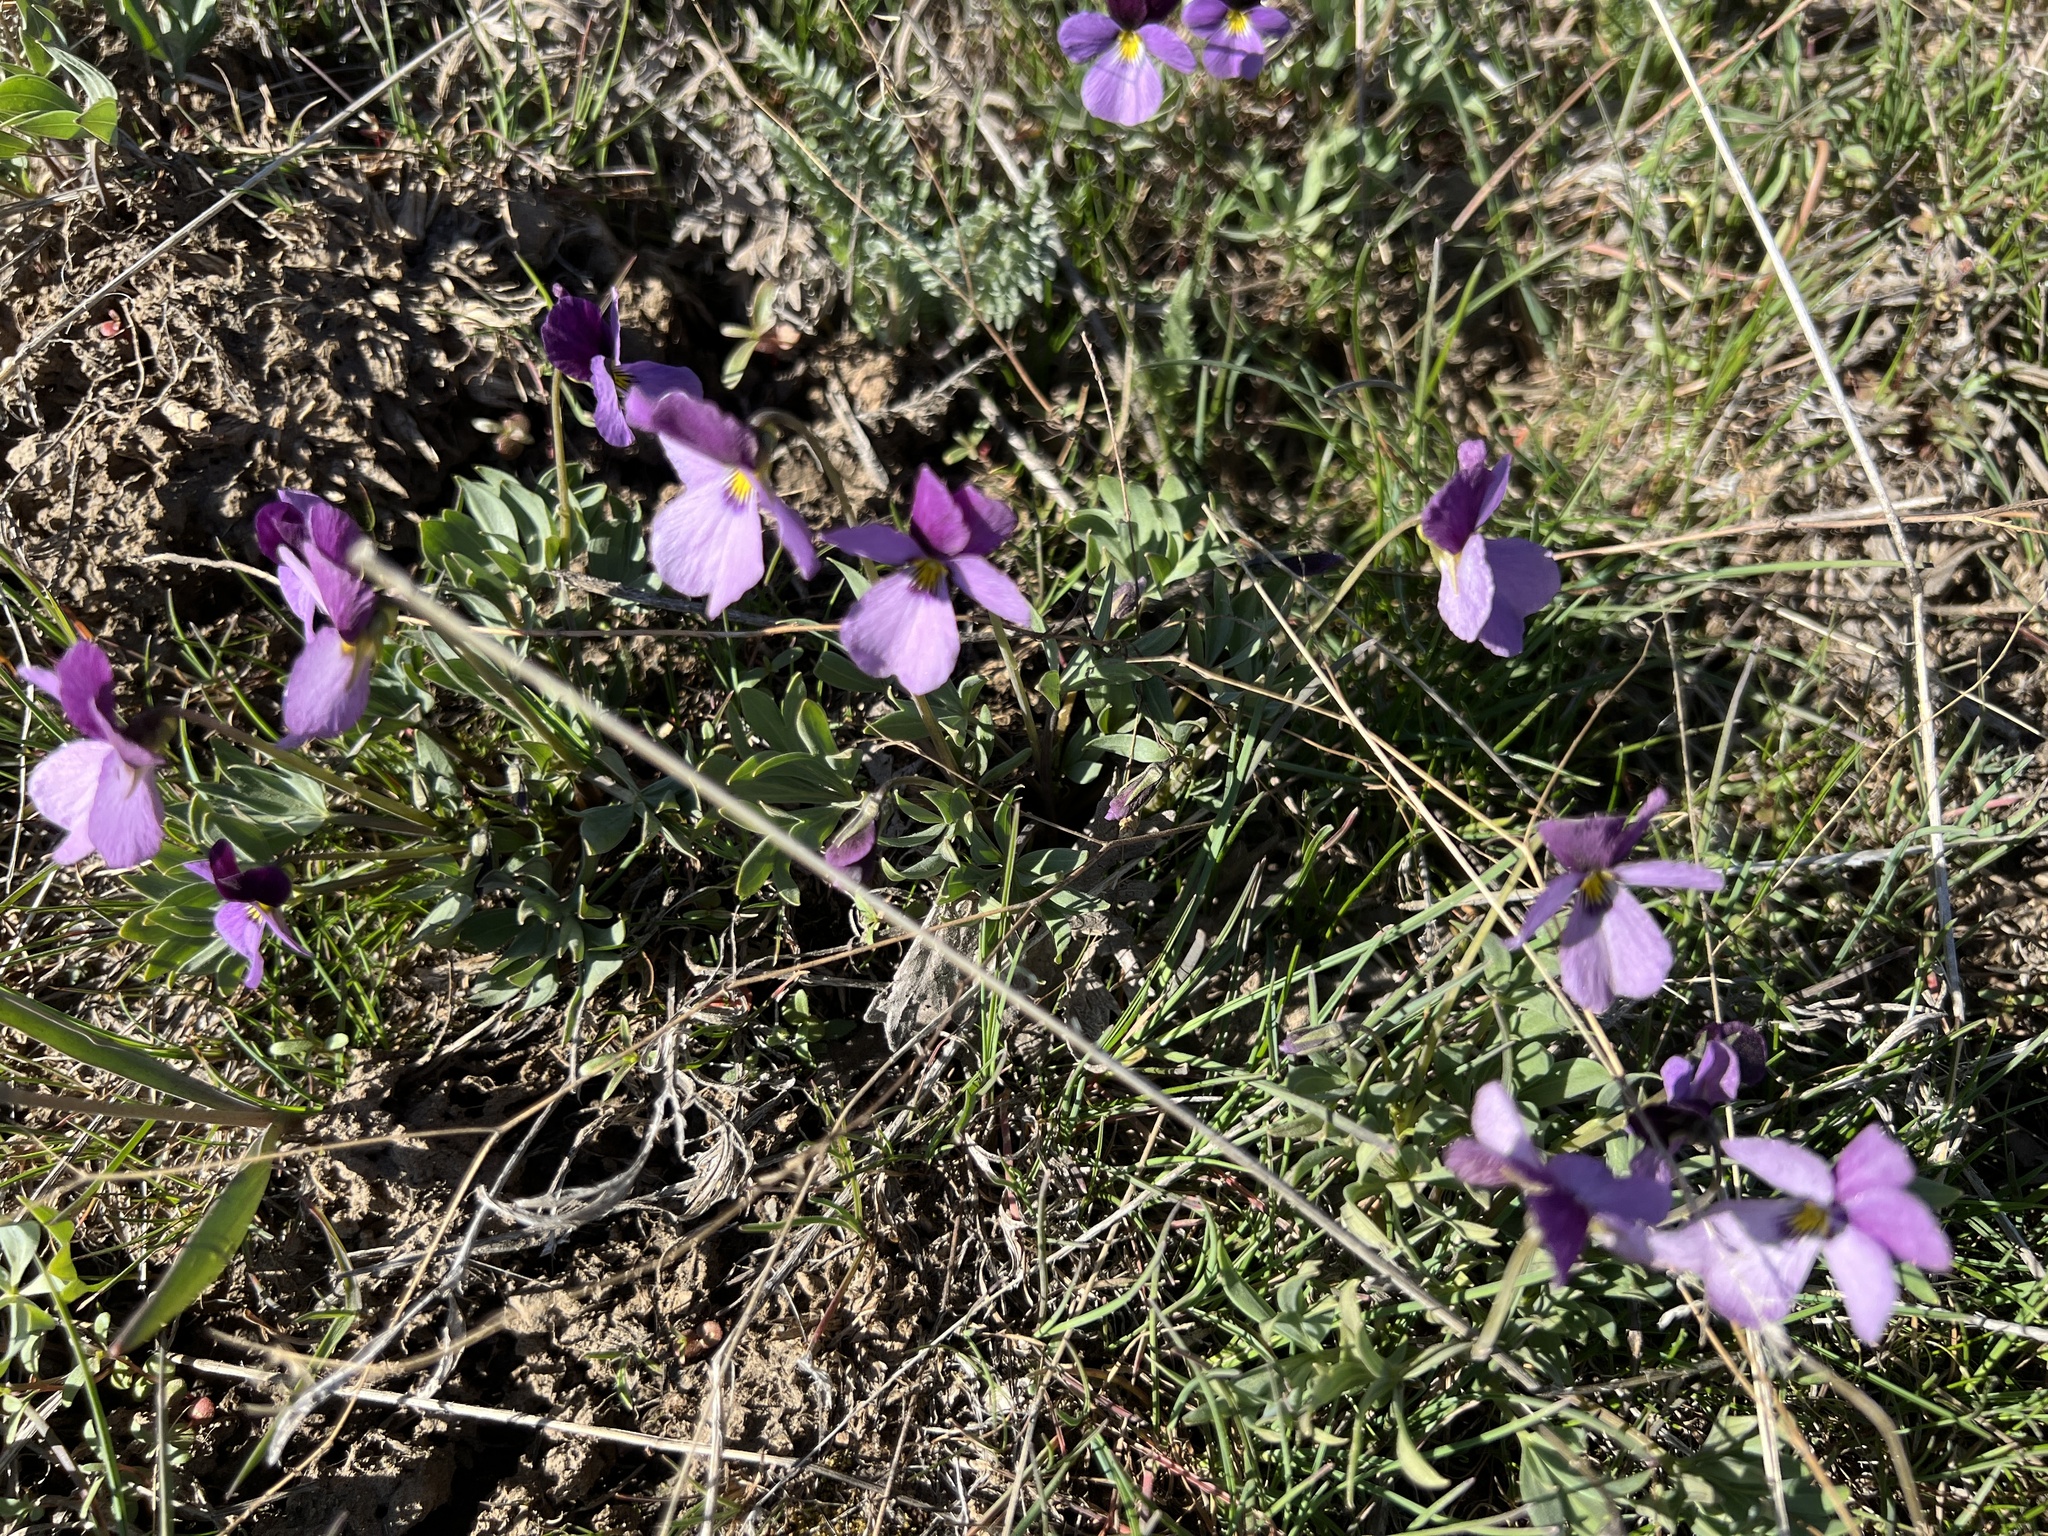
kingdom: Plantae
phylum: Tracheophyta
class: Magnoliopsida
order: Malpighiales
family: Violaceae
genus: Viola
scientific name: Viola trinervata
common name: Sagebrush violet
